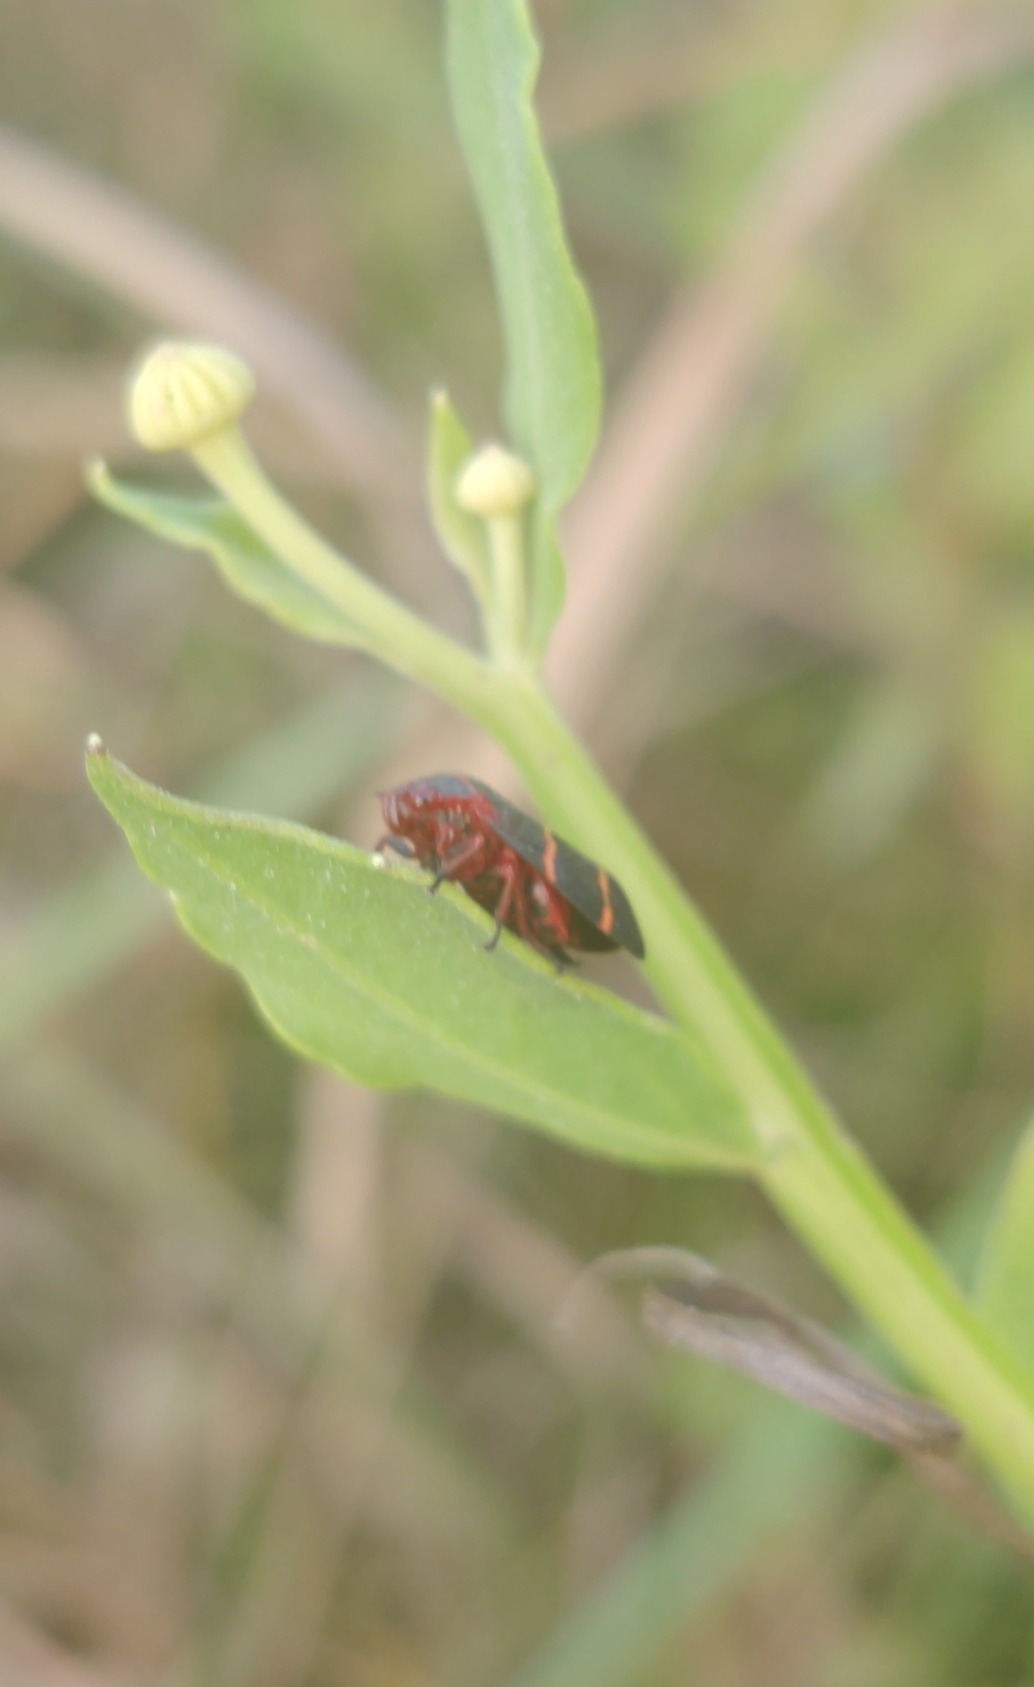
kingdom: Animalia
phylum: Arthropoda
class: Insecta
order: Hemiptera
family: Cercopidae
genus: Prosapia
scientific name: Prosapia bicincta
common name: Twolined spittlebug
